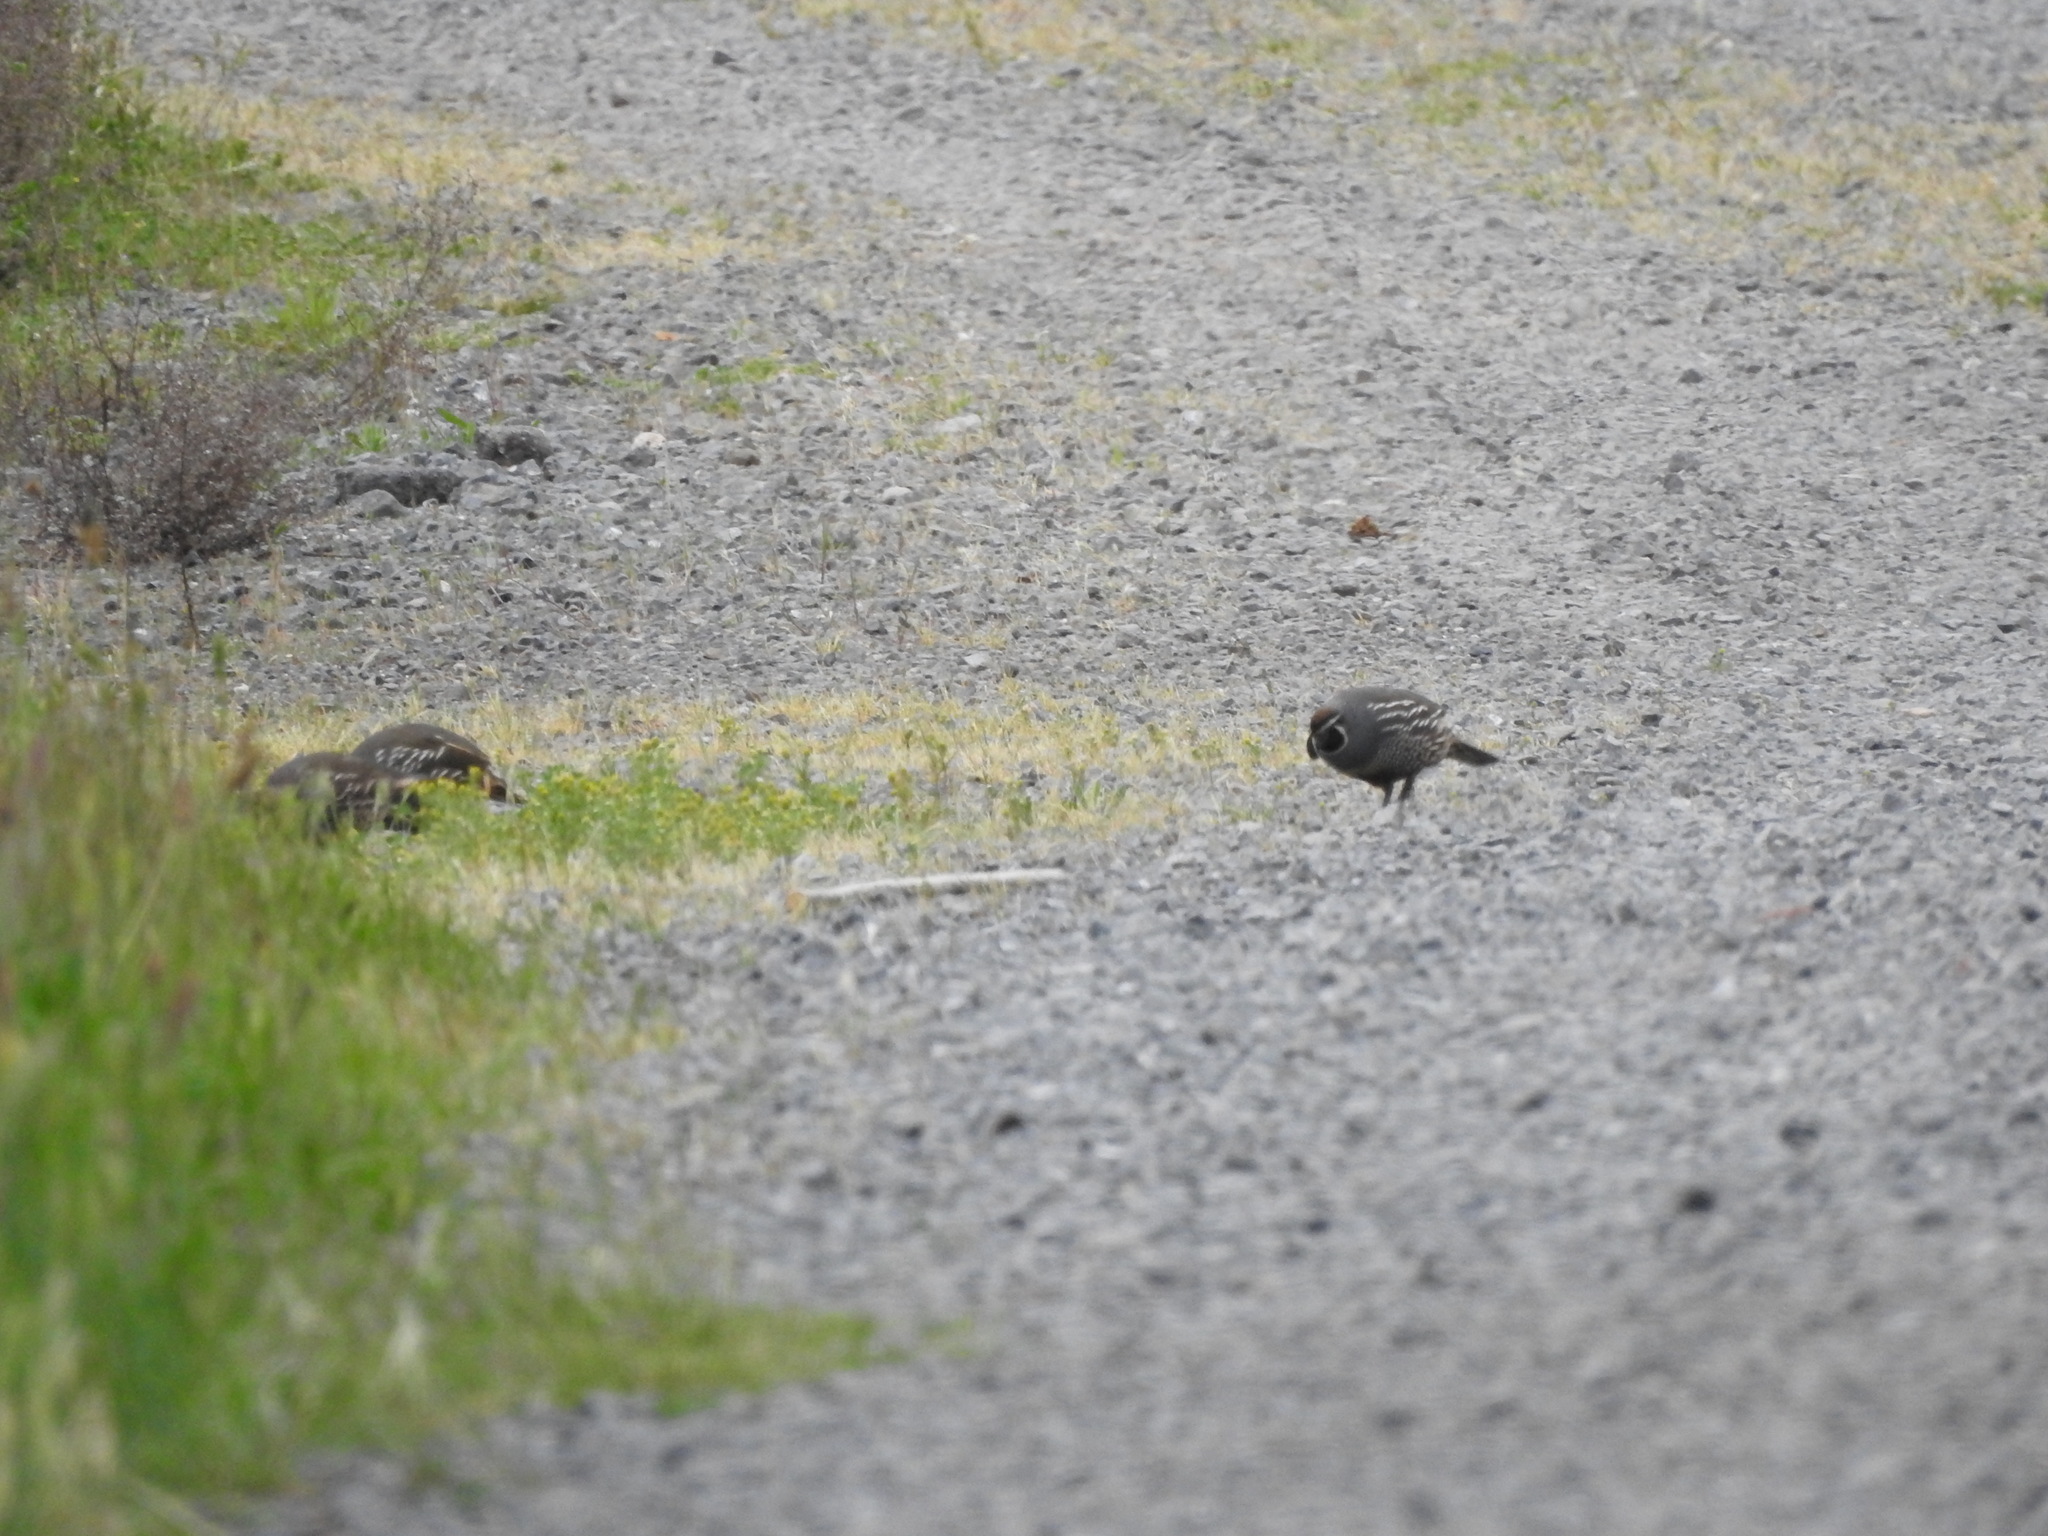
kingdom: Animalia
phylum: Chordata
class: Aves
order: Galliformes
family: Odontophoridae
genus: Callipepla
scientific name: Callipepla californica
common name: California quail
